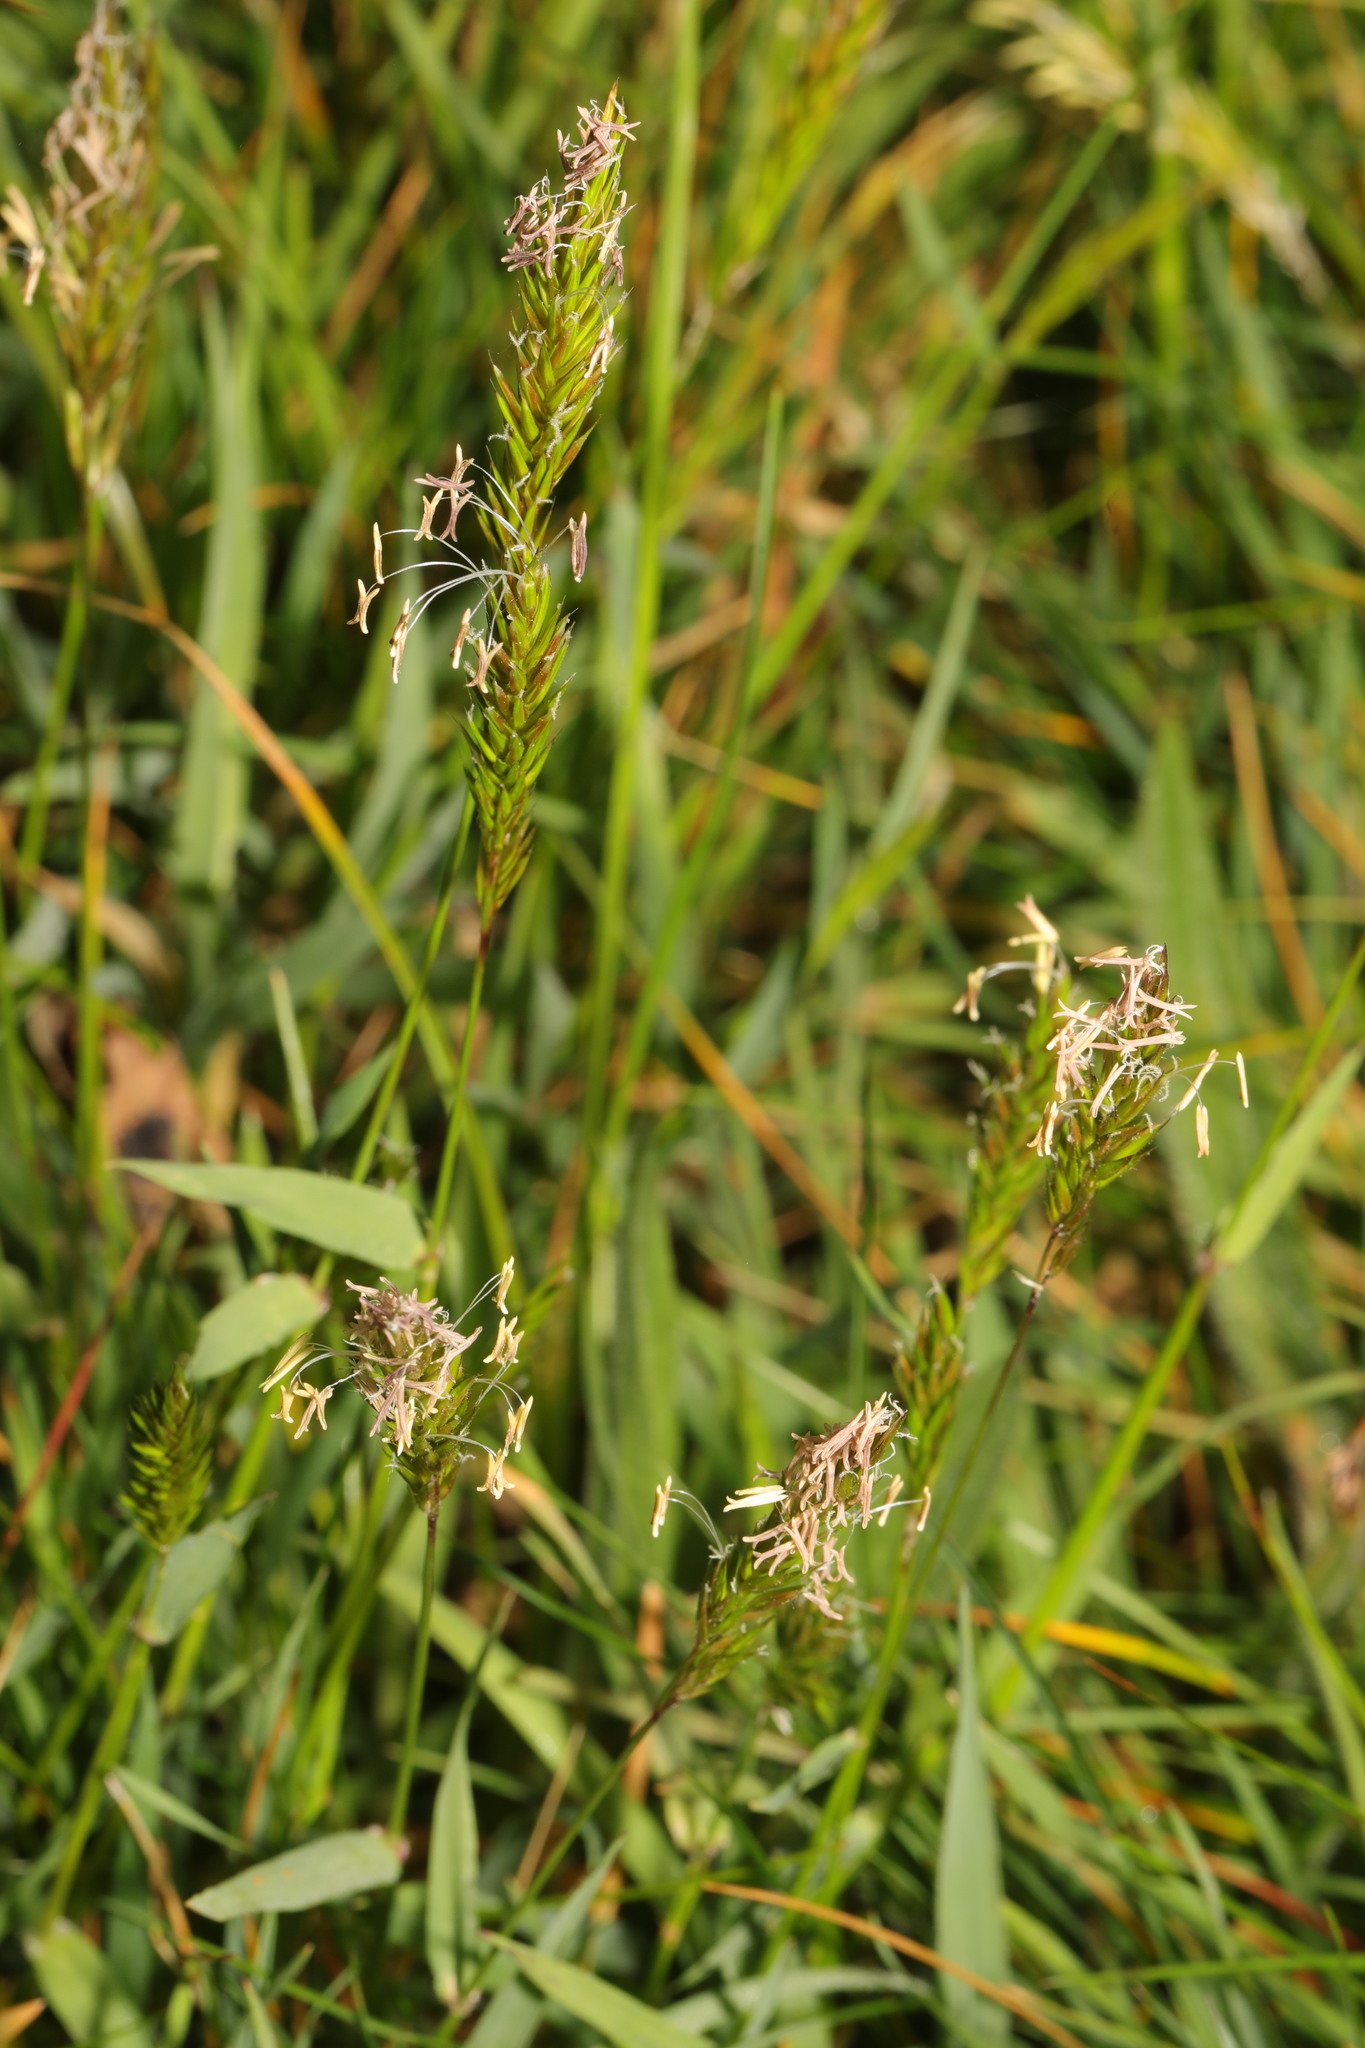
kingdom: Plantae
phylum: Tracheophyta
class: Liliopsida
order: Poales
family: Poaceae
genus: Anthoxanthum
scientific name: Anthoxanthum odoratum
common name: Sweet vernalgrass
